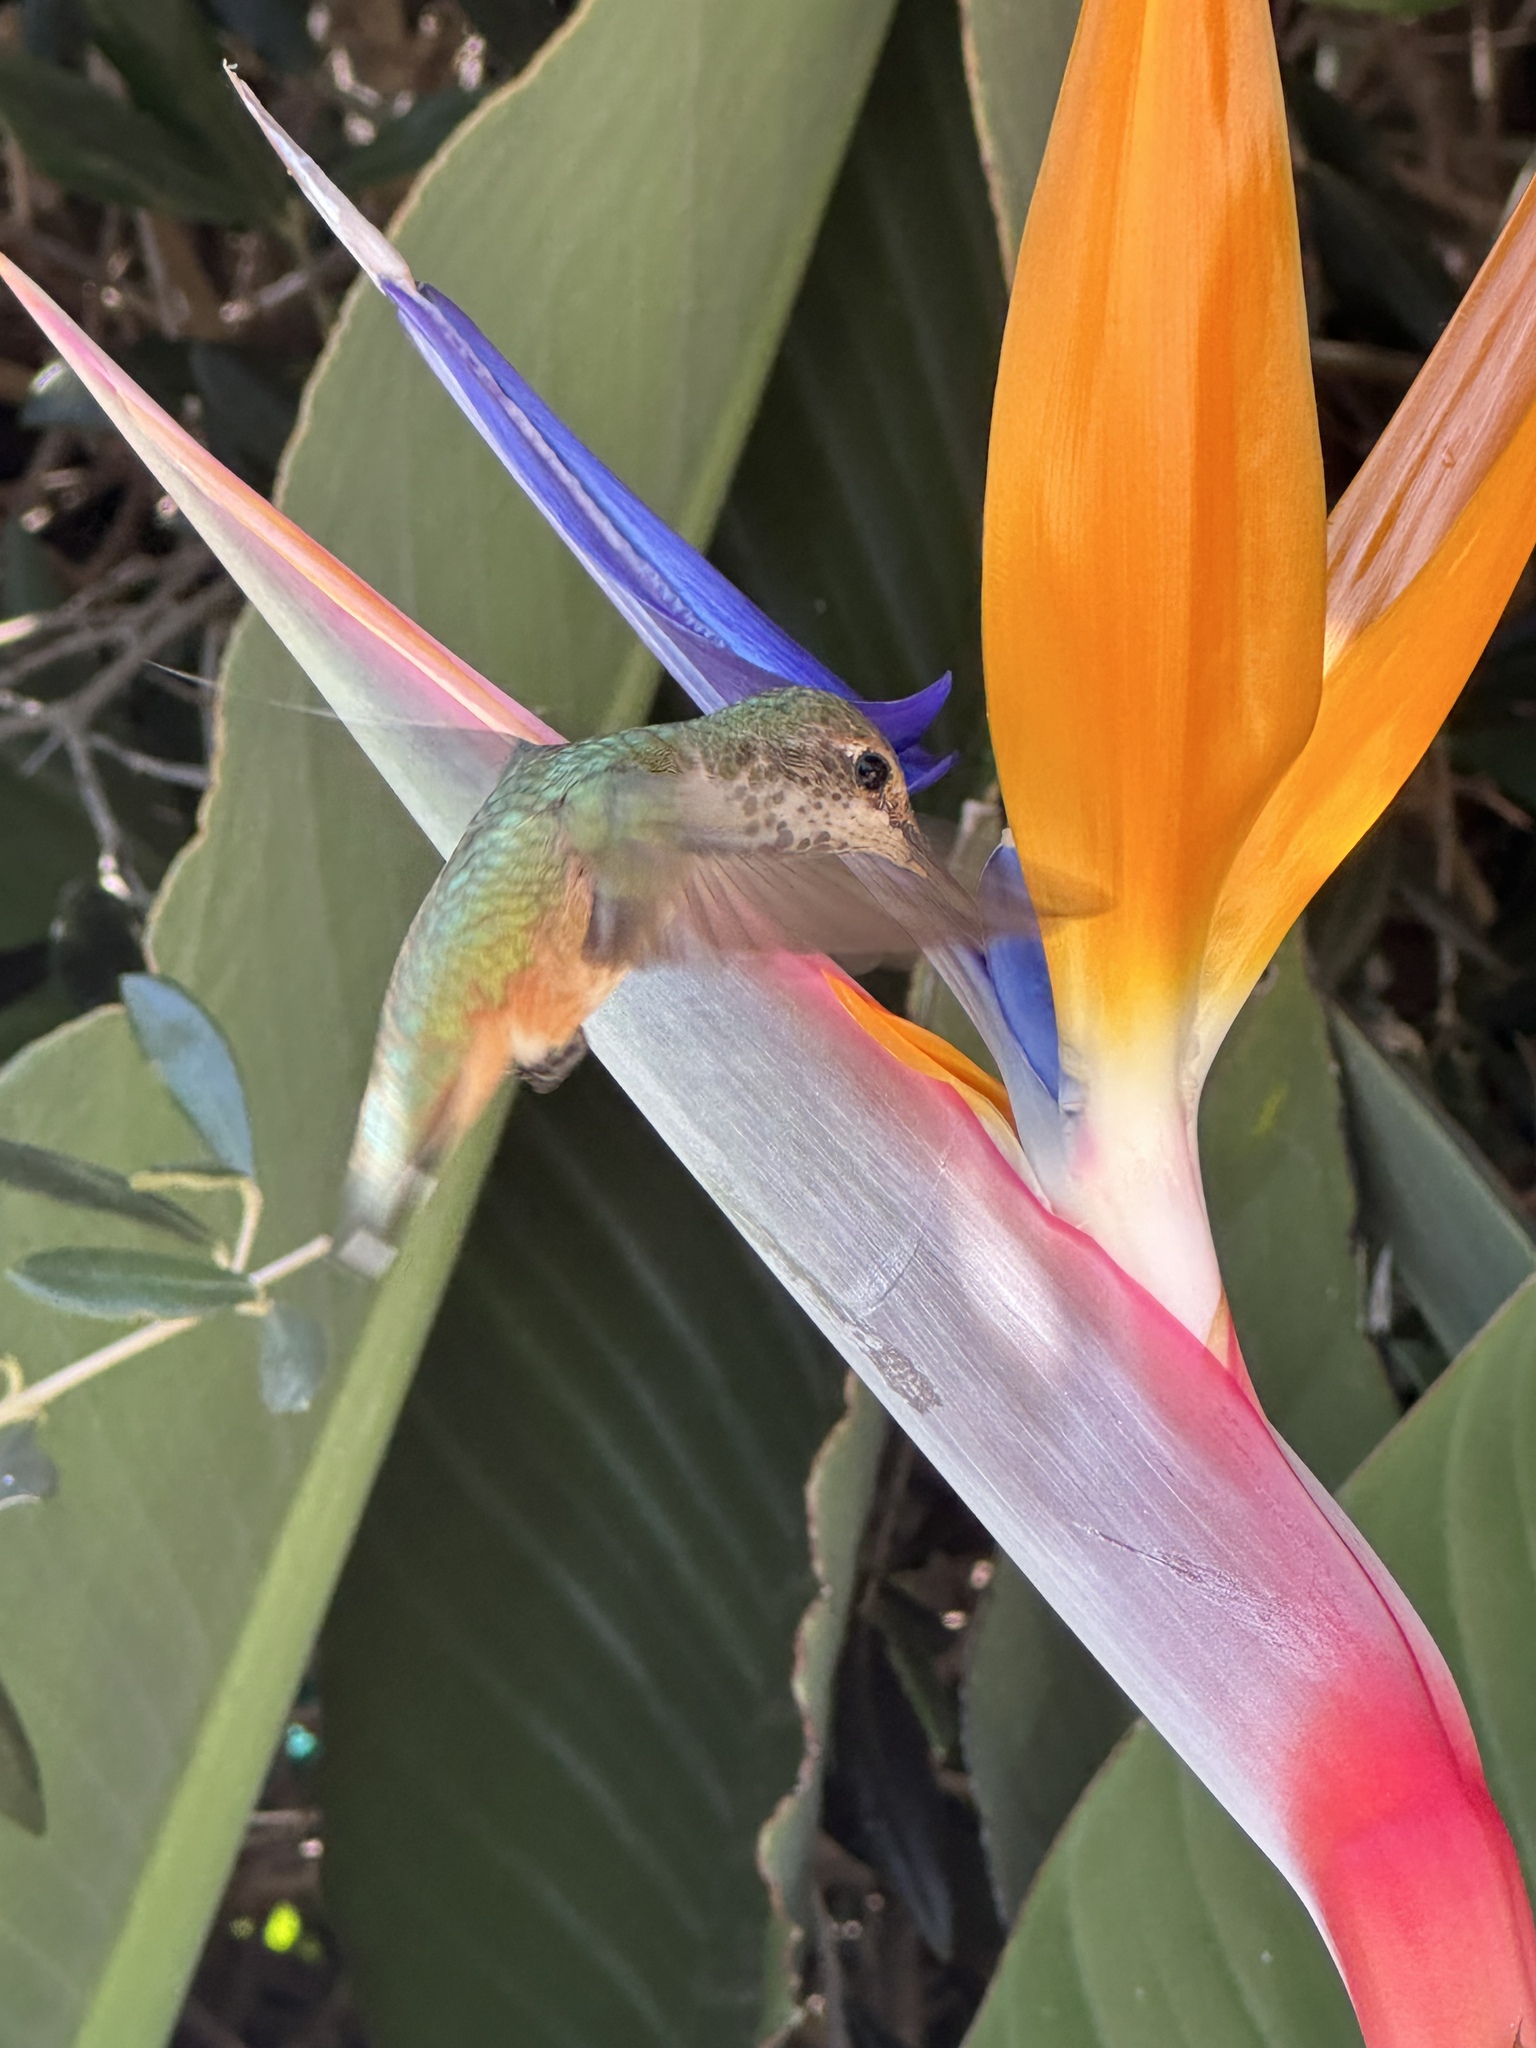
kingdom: Animalia
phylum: Chordata
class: Aves
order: Apodiformes
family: Trochilidae
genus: Selasphorus
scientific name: Selasphorus sasin
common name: Allen's hummingbird
